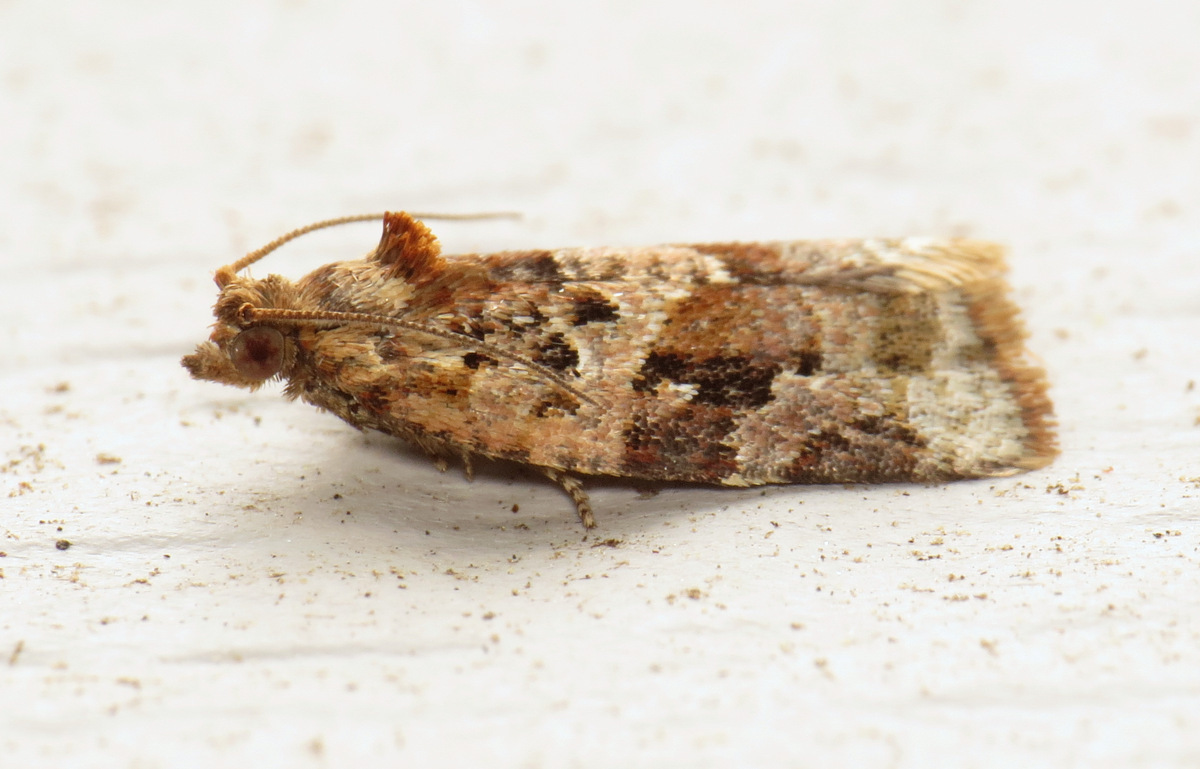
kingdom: Animalia
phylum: Arthropoda
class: Insecta
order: Lepidoptera
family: Tortricidae
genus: Argyrotaenia
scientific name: Argyrotaenia velutinana
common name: Red-banded leafroller moth
